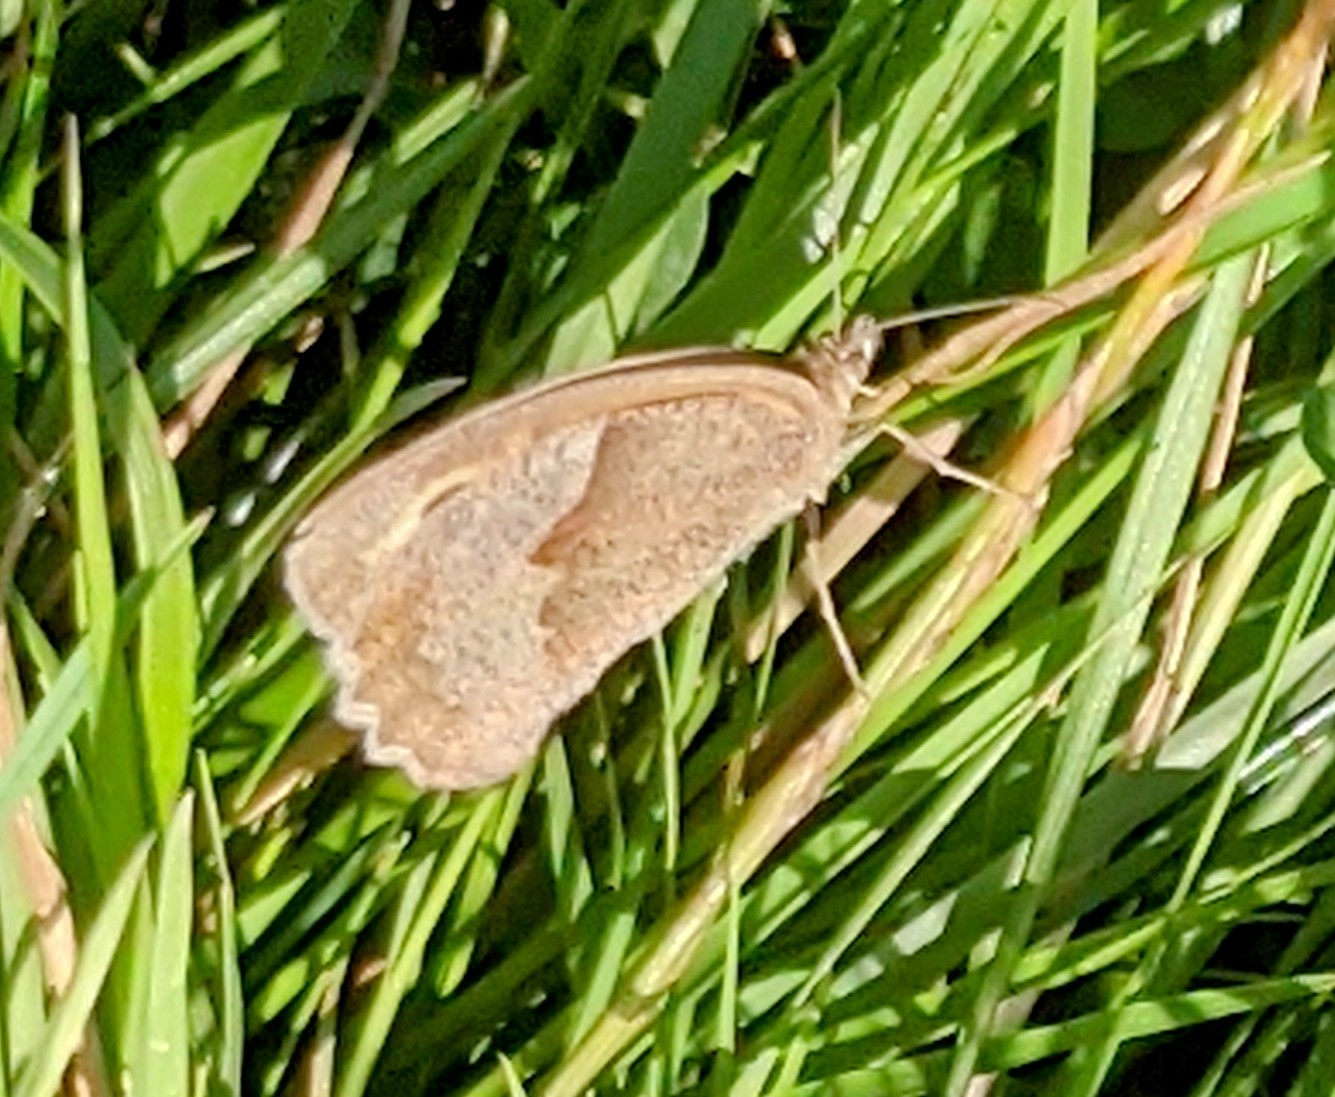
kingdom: Animalia
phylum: Arthropoda
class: Insecta
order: Lepidoptera
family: Nymphalidae
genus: Maniola
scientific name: Maniola jurtina
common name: Meadow brown
